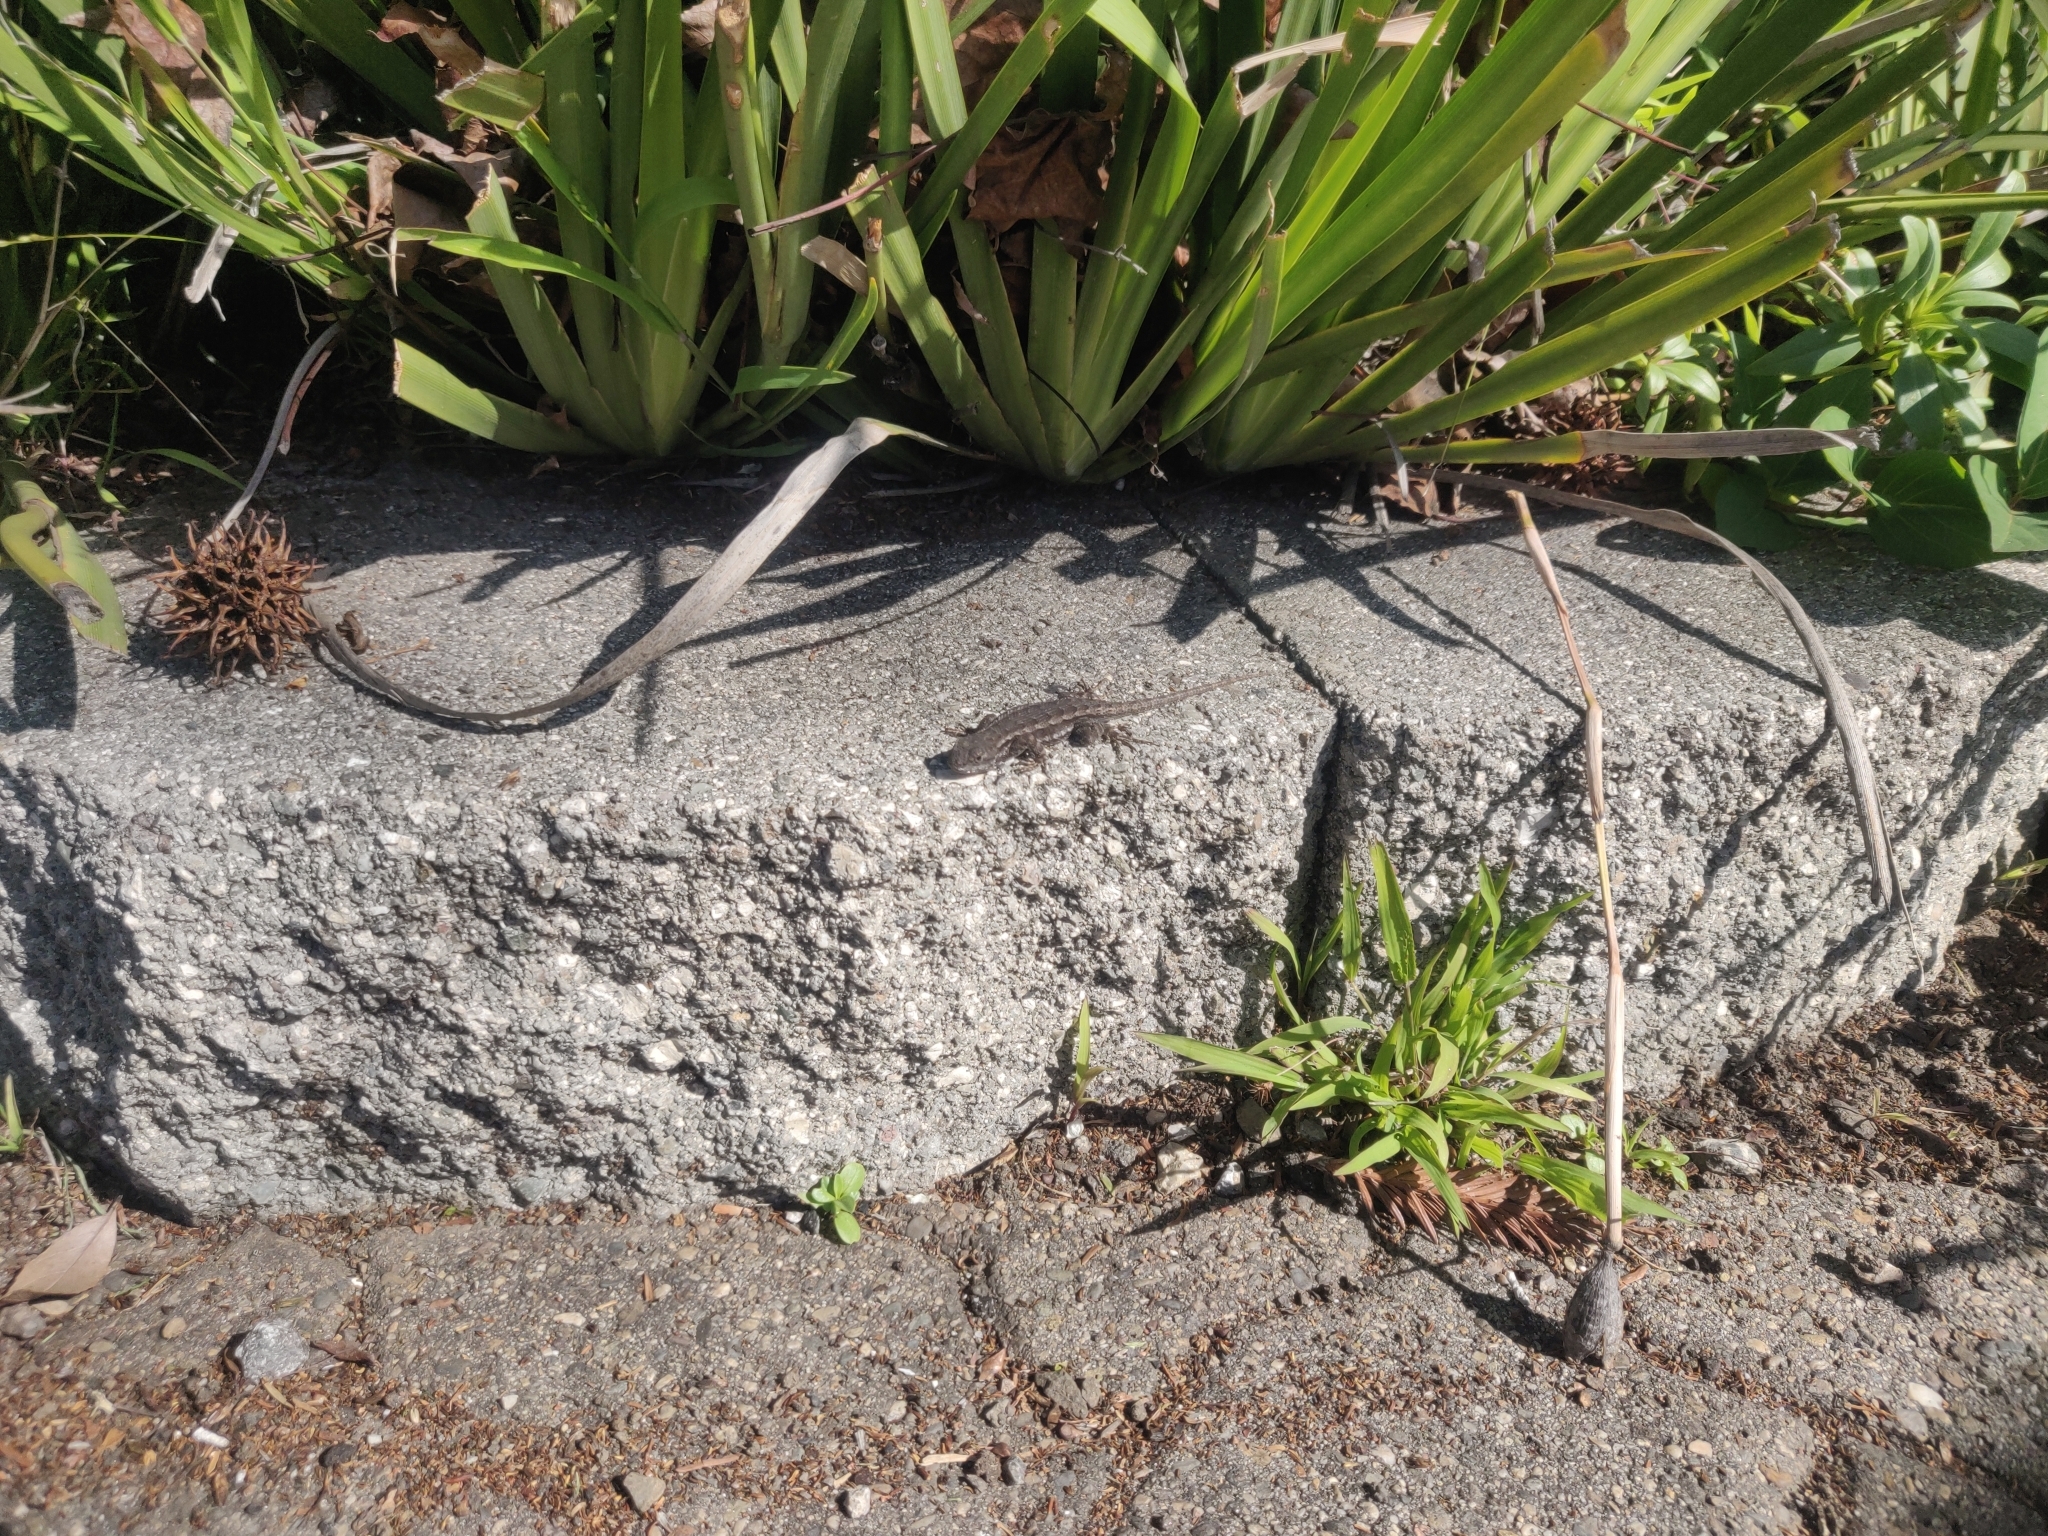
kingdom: Animalia
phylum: Chordata
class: Squamata
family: Phrynosomatidae
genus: Sceloporus
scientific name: Sceloporus occidentalis
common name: Western fence lizard
